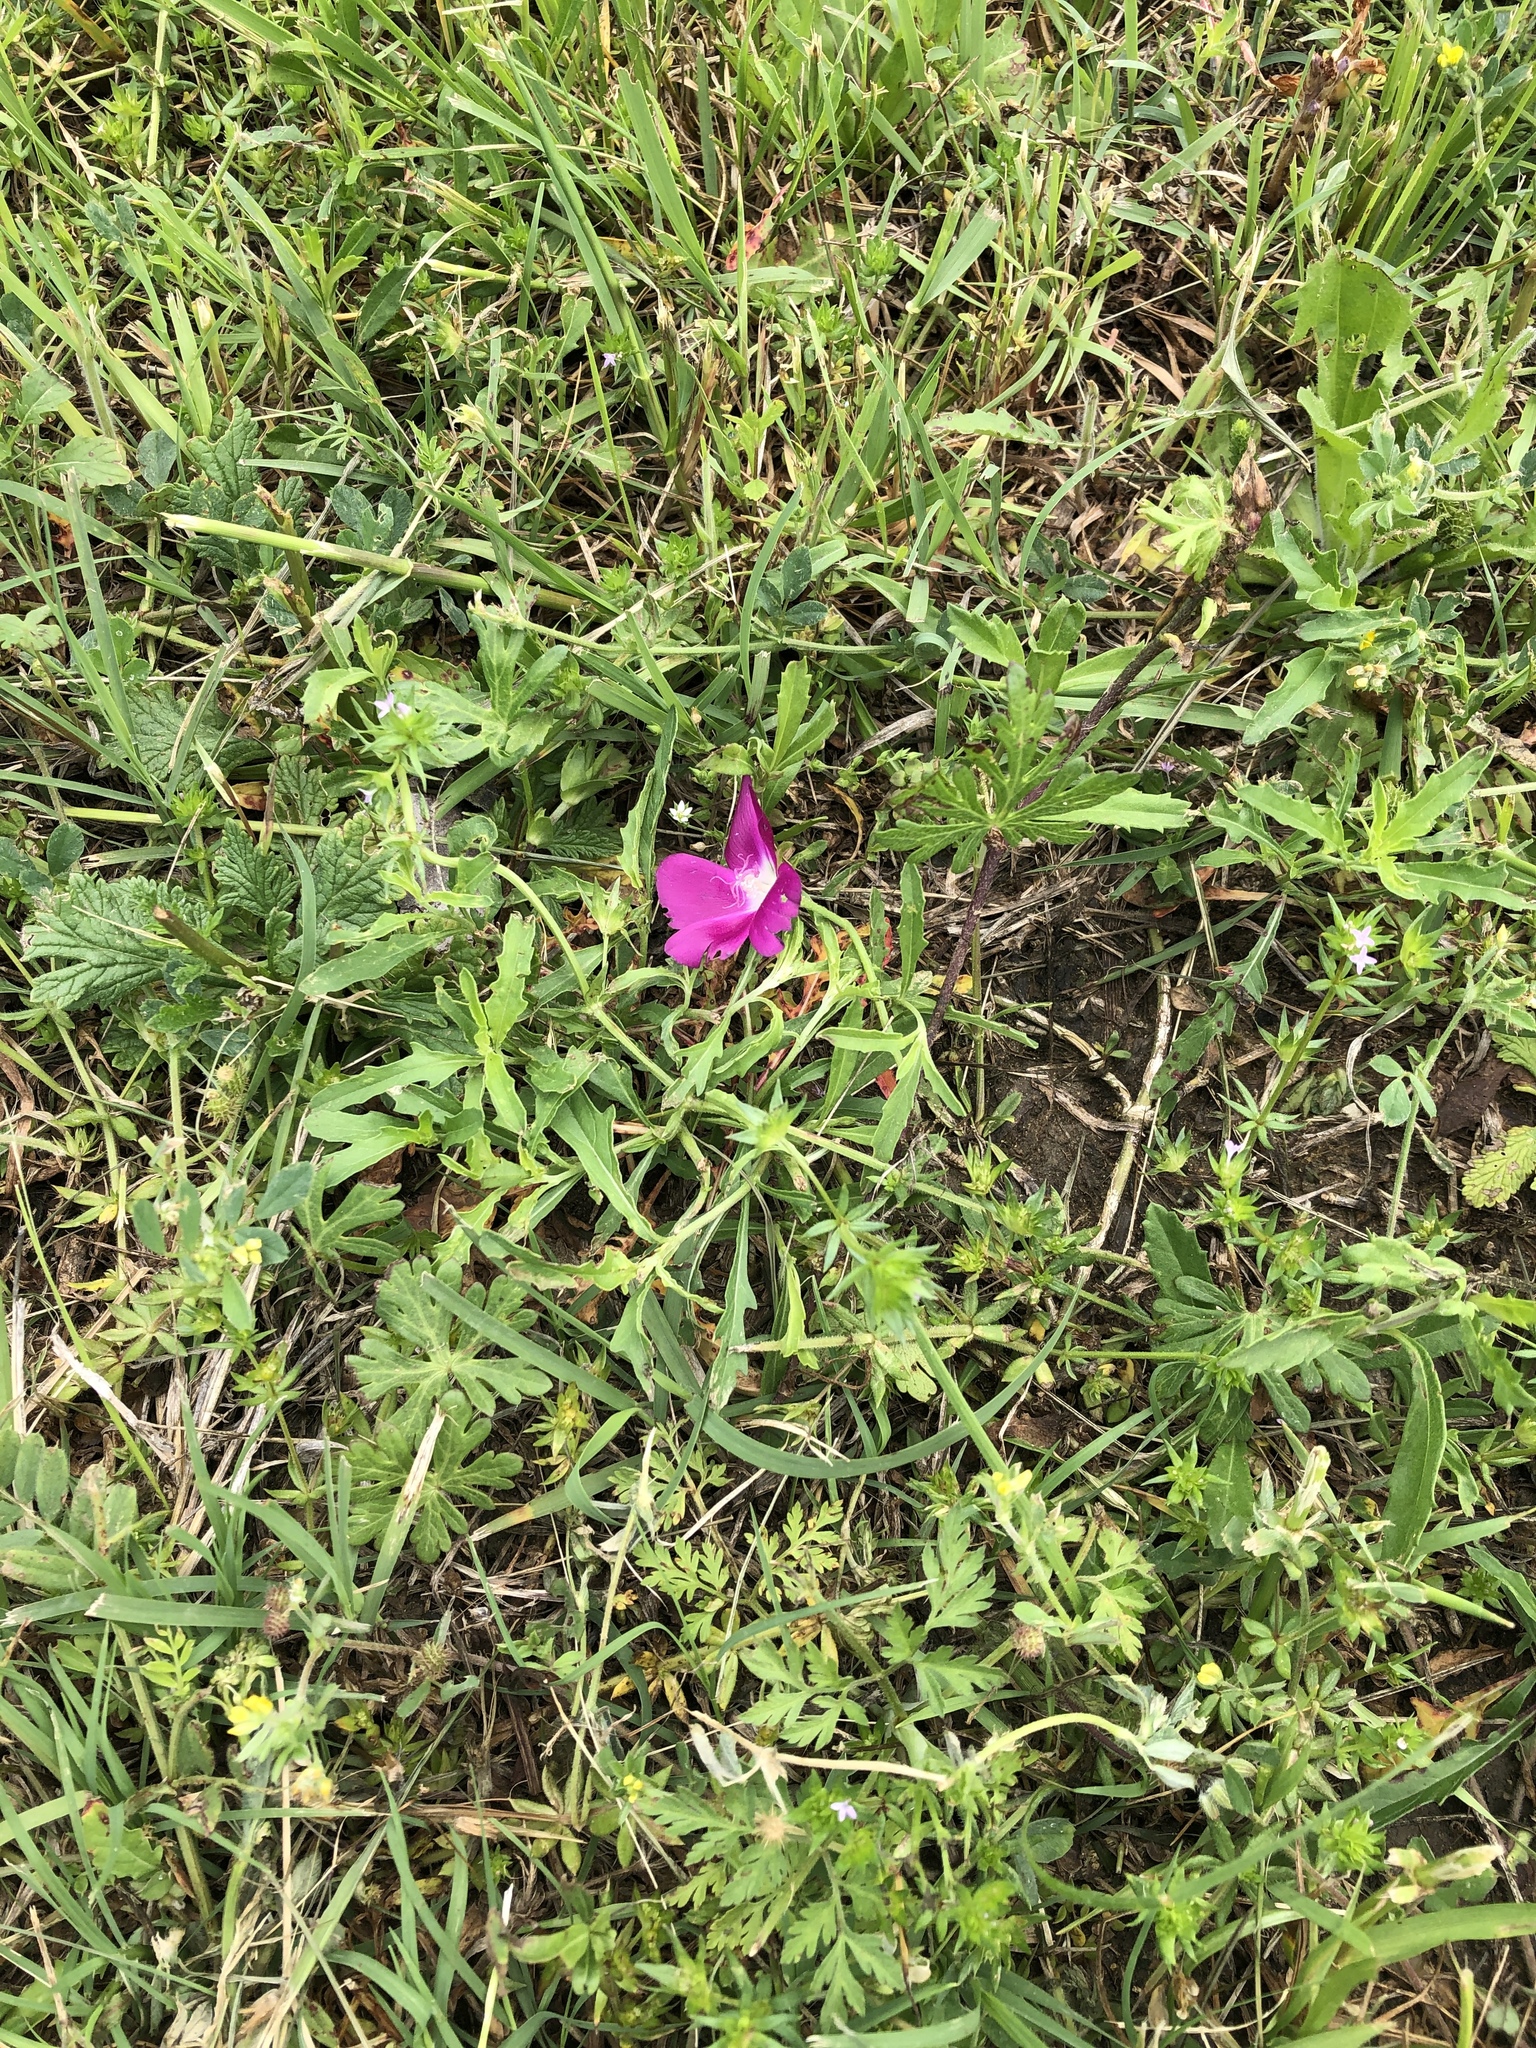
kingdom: Plantae
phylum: Tracheophyta
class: Magnoliopsida
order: Malvales
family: Malvaceae
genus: Callirhoe
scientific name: Callirhoe involucrata
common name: Purple poppy-mallow
